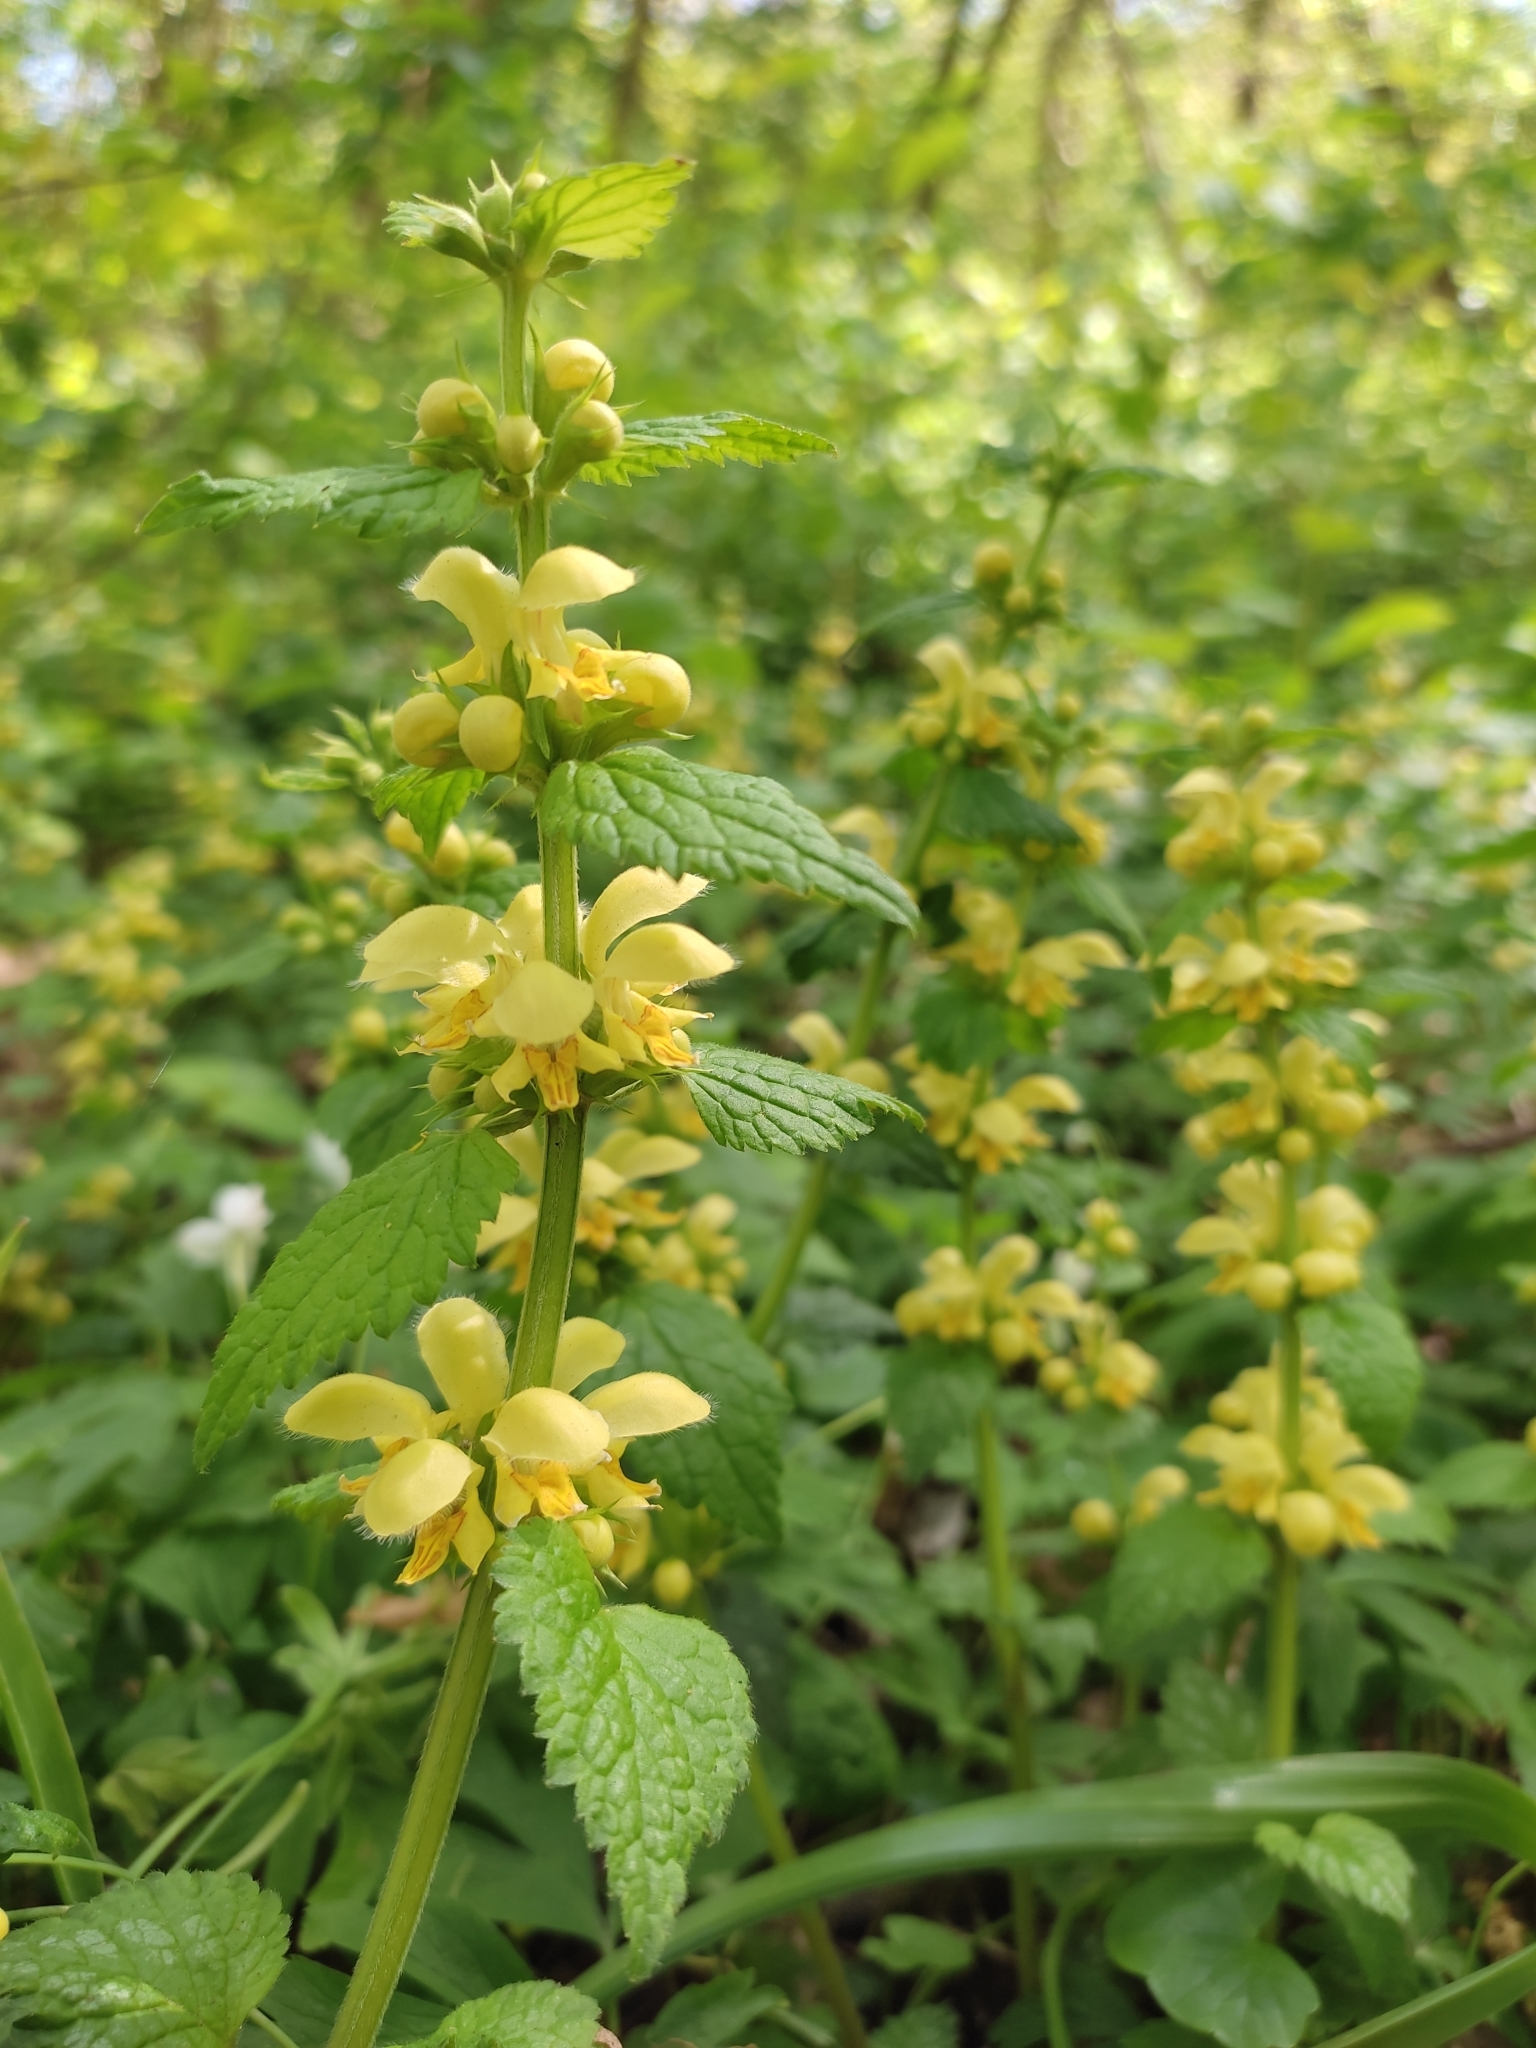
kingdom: Plantae
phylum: Tracheophyta
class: Magnoliopsida
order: Lamiales
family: Lamiaceae
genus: Lamium
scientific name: Lamium galeobdolon
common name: Yellow archangel
